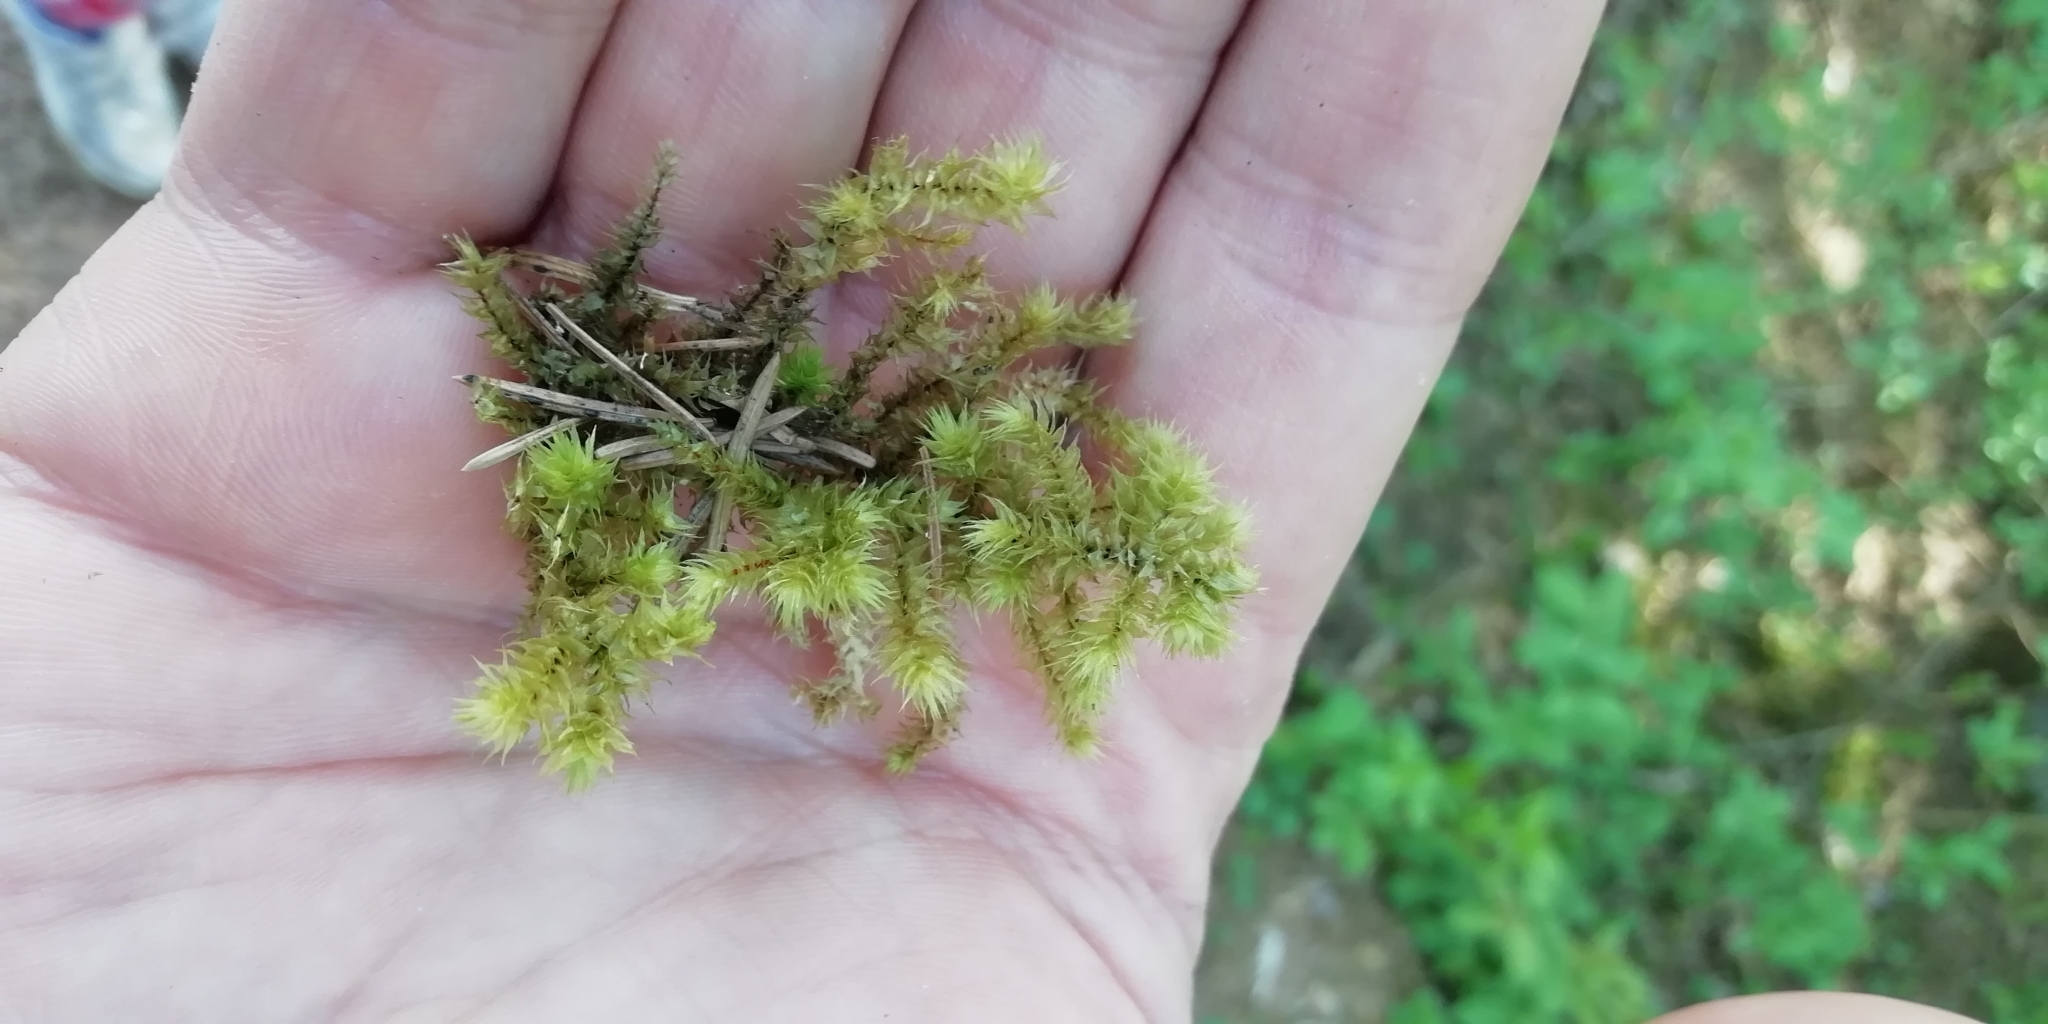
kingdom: Plantae
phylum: Bryophyta
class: Bryopsida
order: Hypnales
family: Hylocomiaceae
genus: Hylocomiadelphus
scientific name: Hylocomiadelphus triquetrus
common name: Rough goose neck moss
